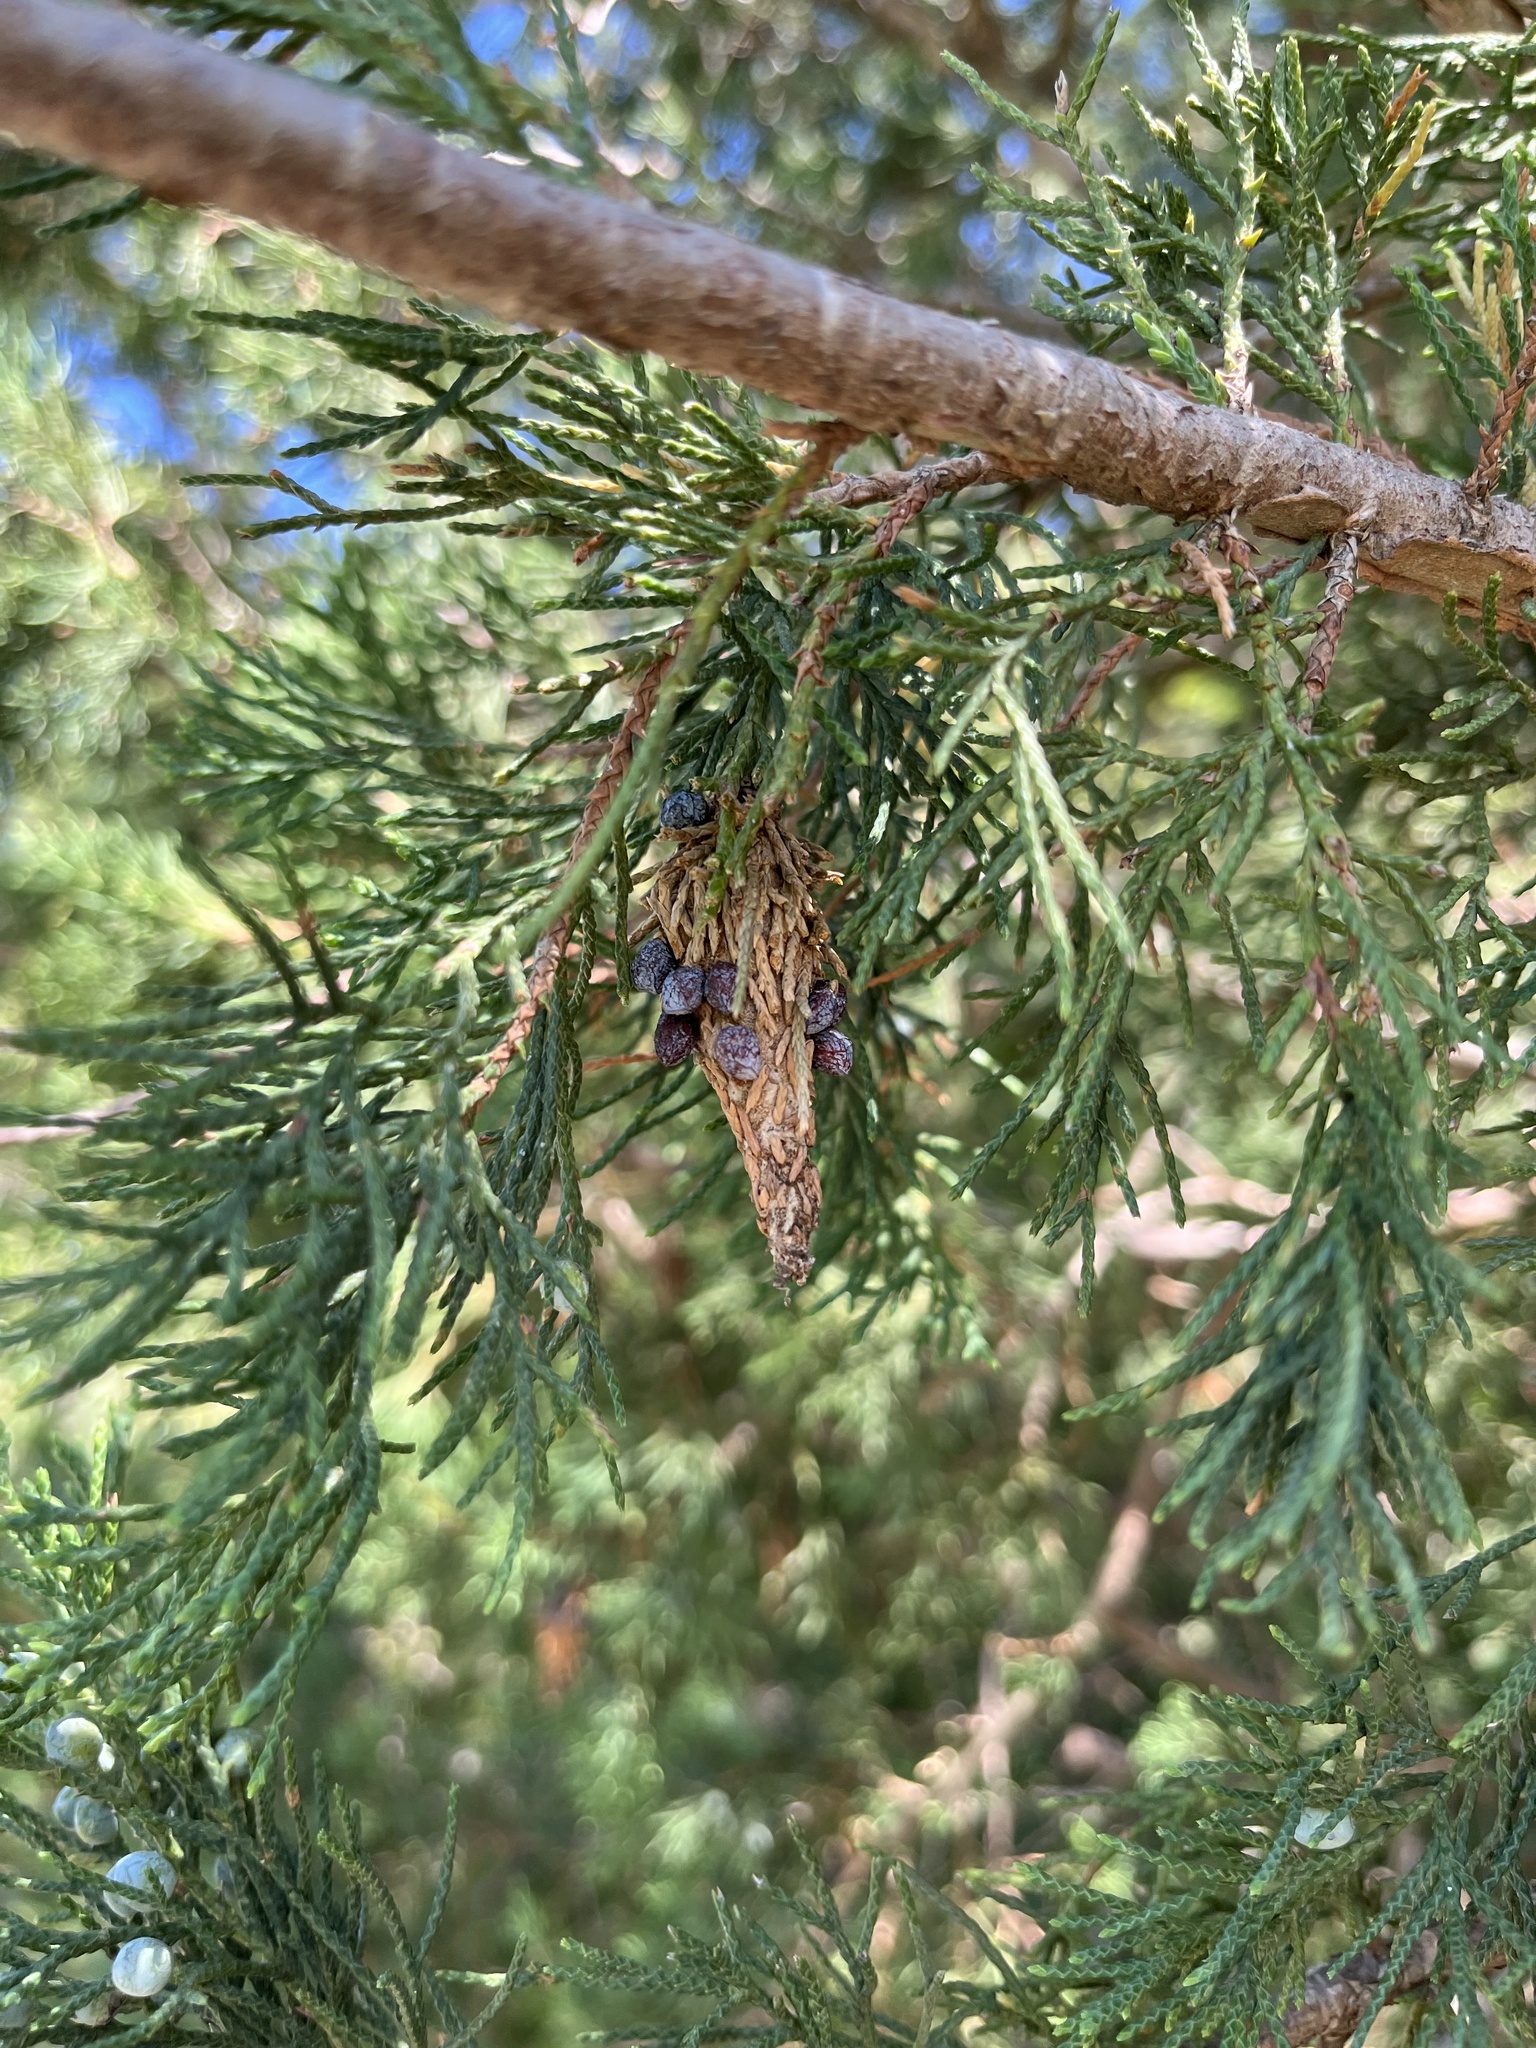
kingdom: Animalia
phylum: Arthropoda
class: Insecta
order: Lepidoptera
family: Psychidae
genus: Thyridopteryx
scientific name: Thyridopteryx ephemeraeformis
